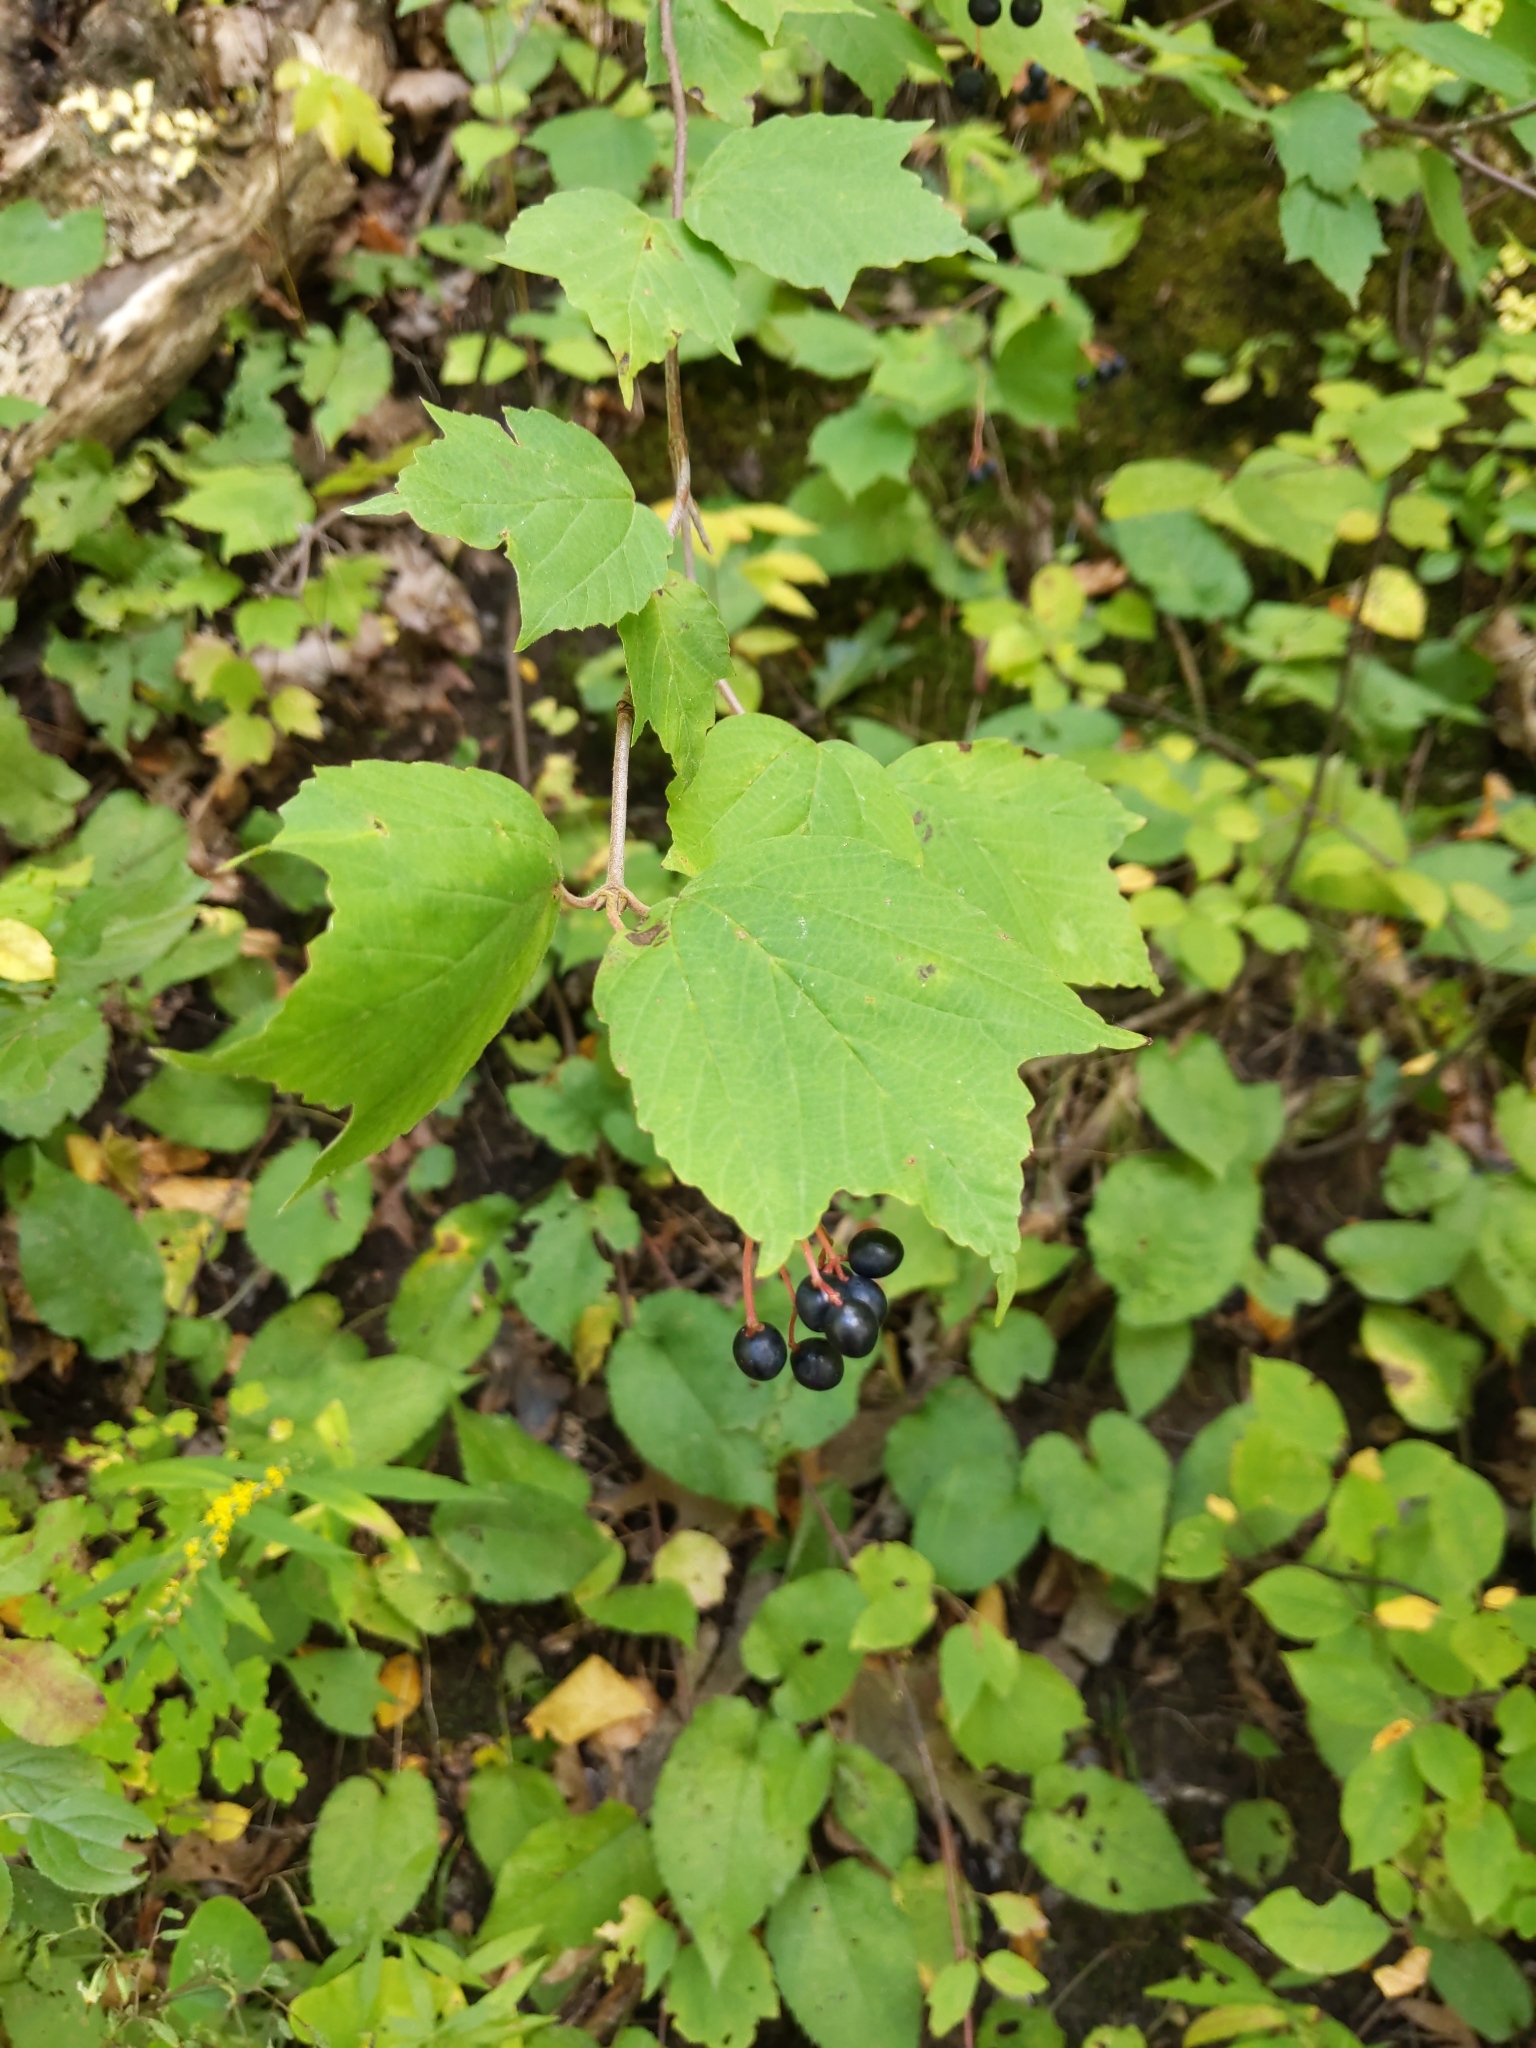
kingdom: Plantae
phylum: Tracheophyta
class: Magnoliopsida
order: Dipsacales
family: Viburnaceae
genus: Viburnum
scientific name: Viburnum acerifolium
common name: Dockmackie
